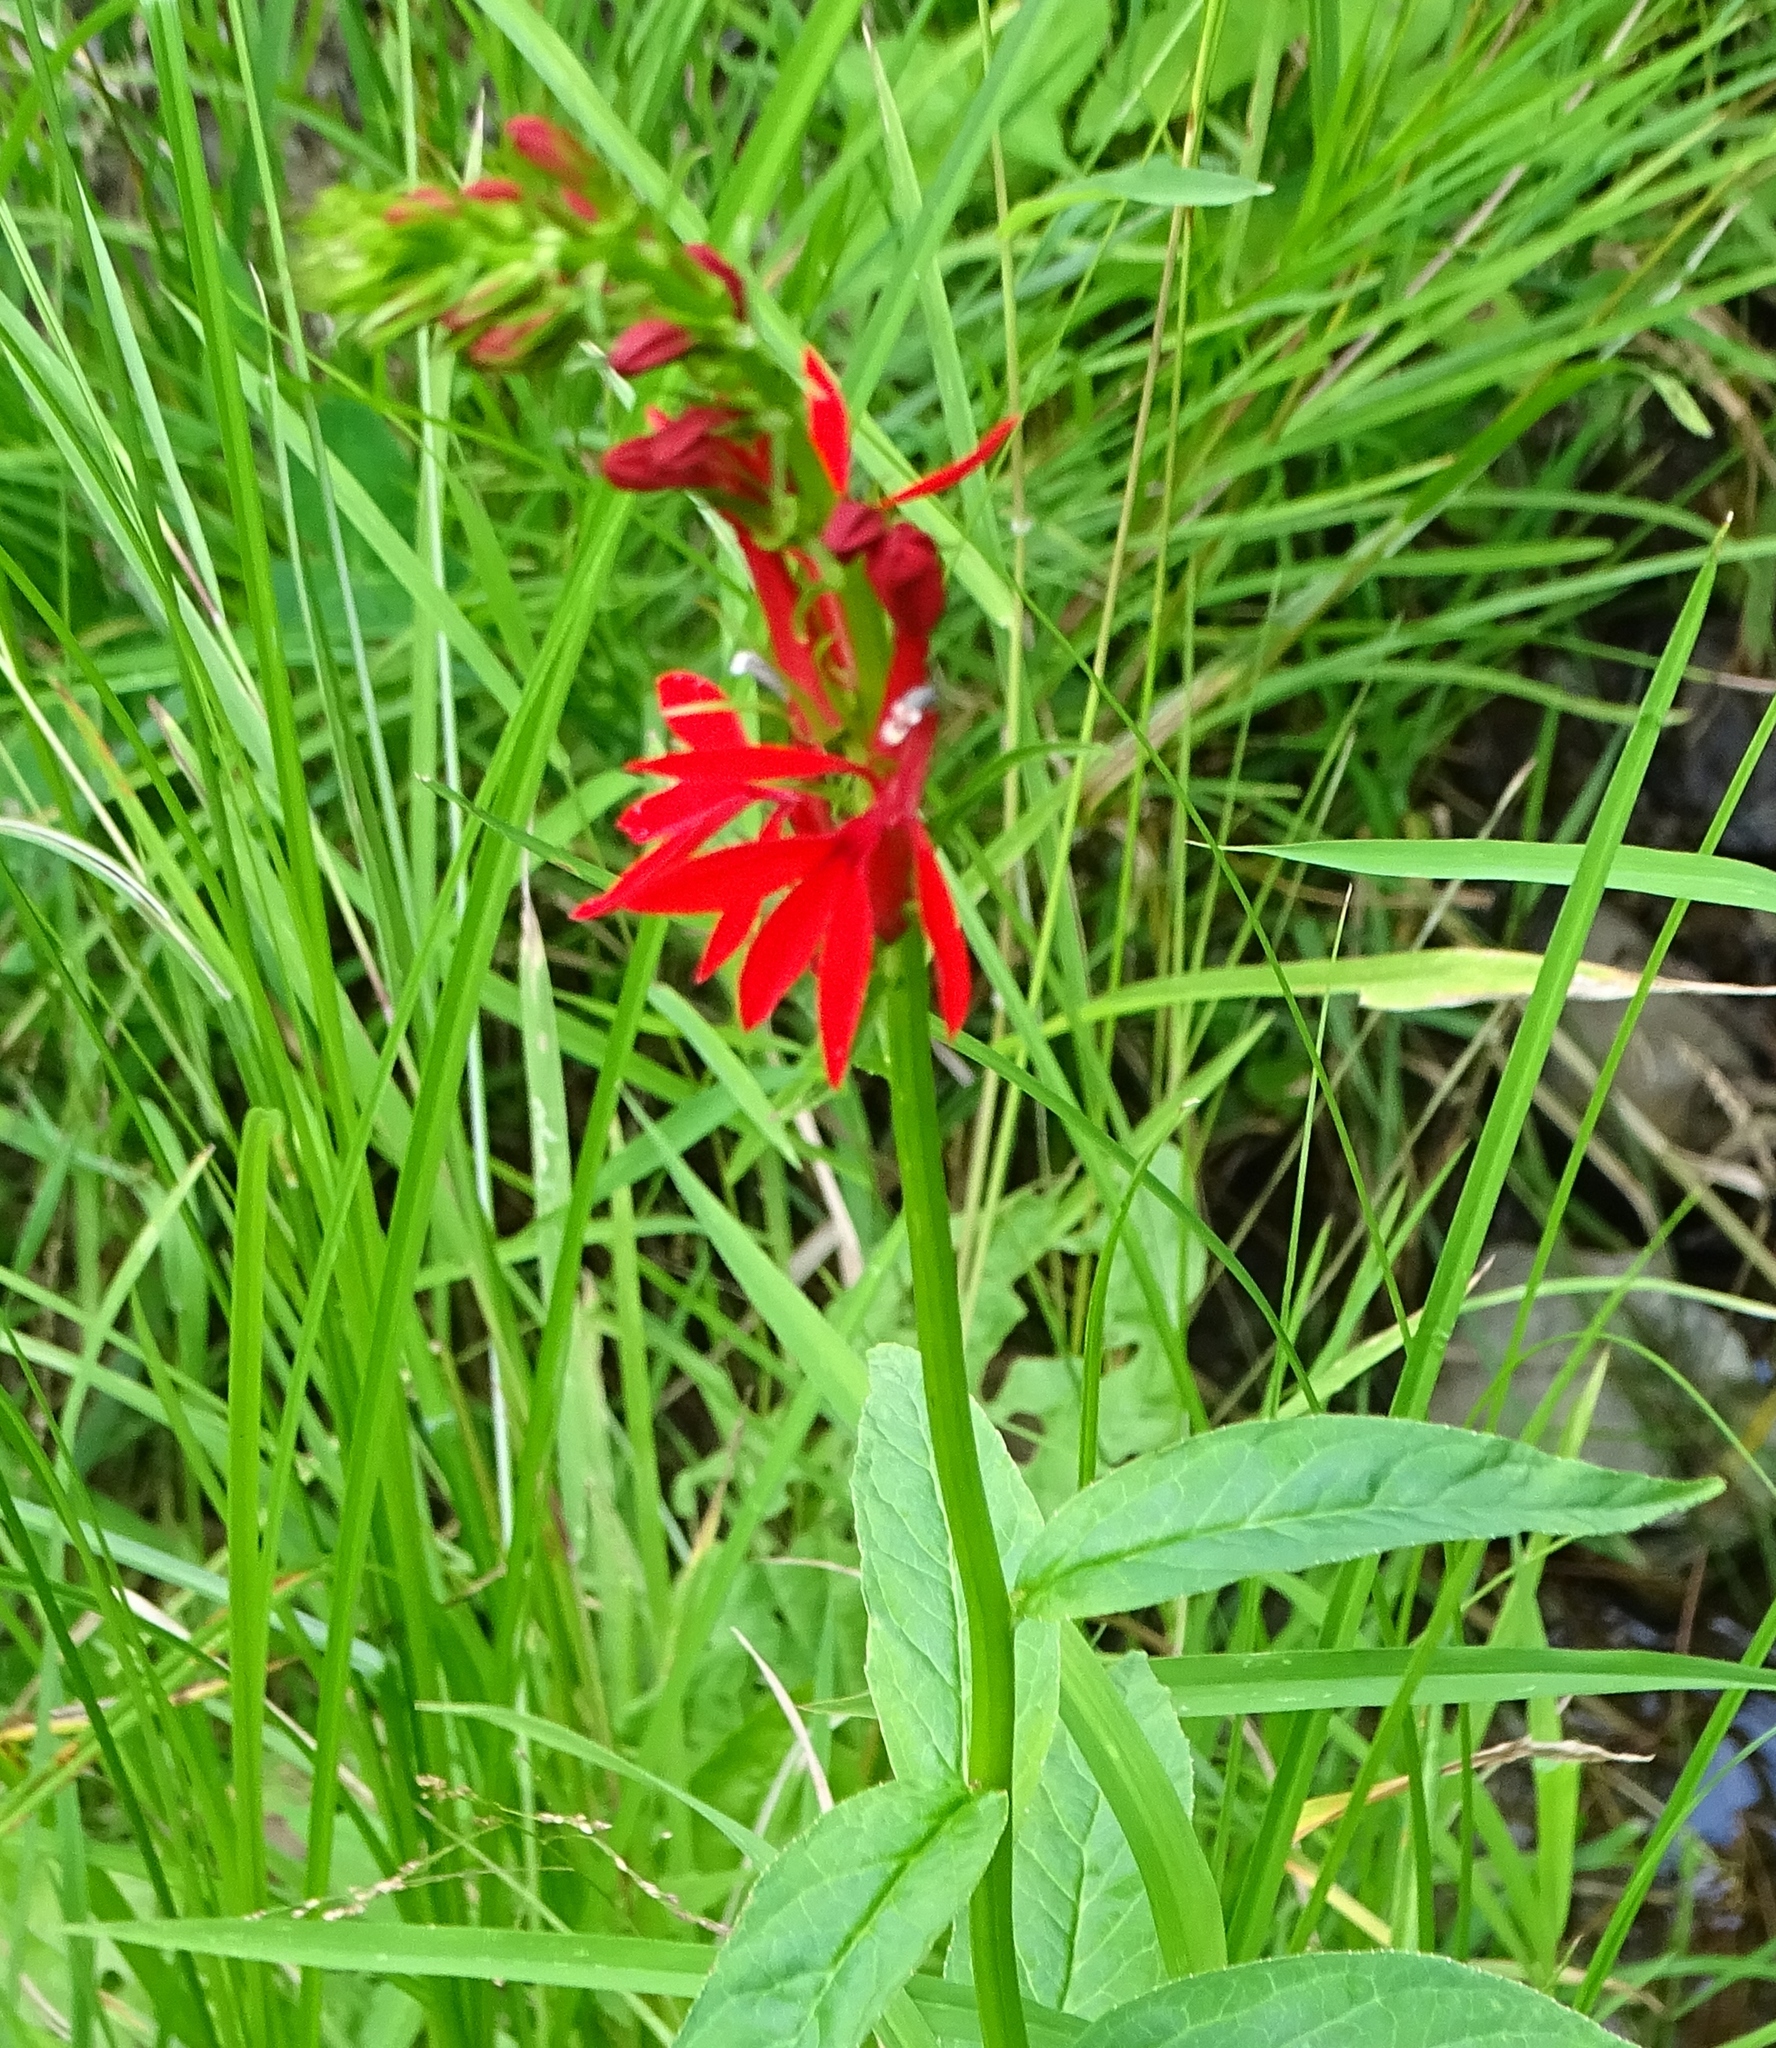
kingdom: Plantae
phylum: Tracheophyta
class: Magnoliopsida
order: Asterales
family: Campanulaceae
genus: Lobelia
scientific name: Lobelia cardinalis
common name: Cardinal flower
